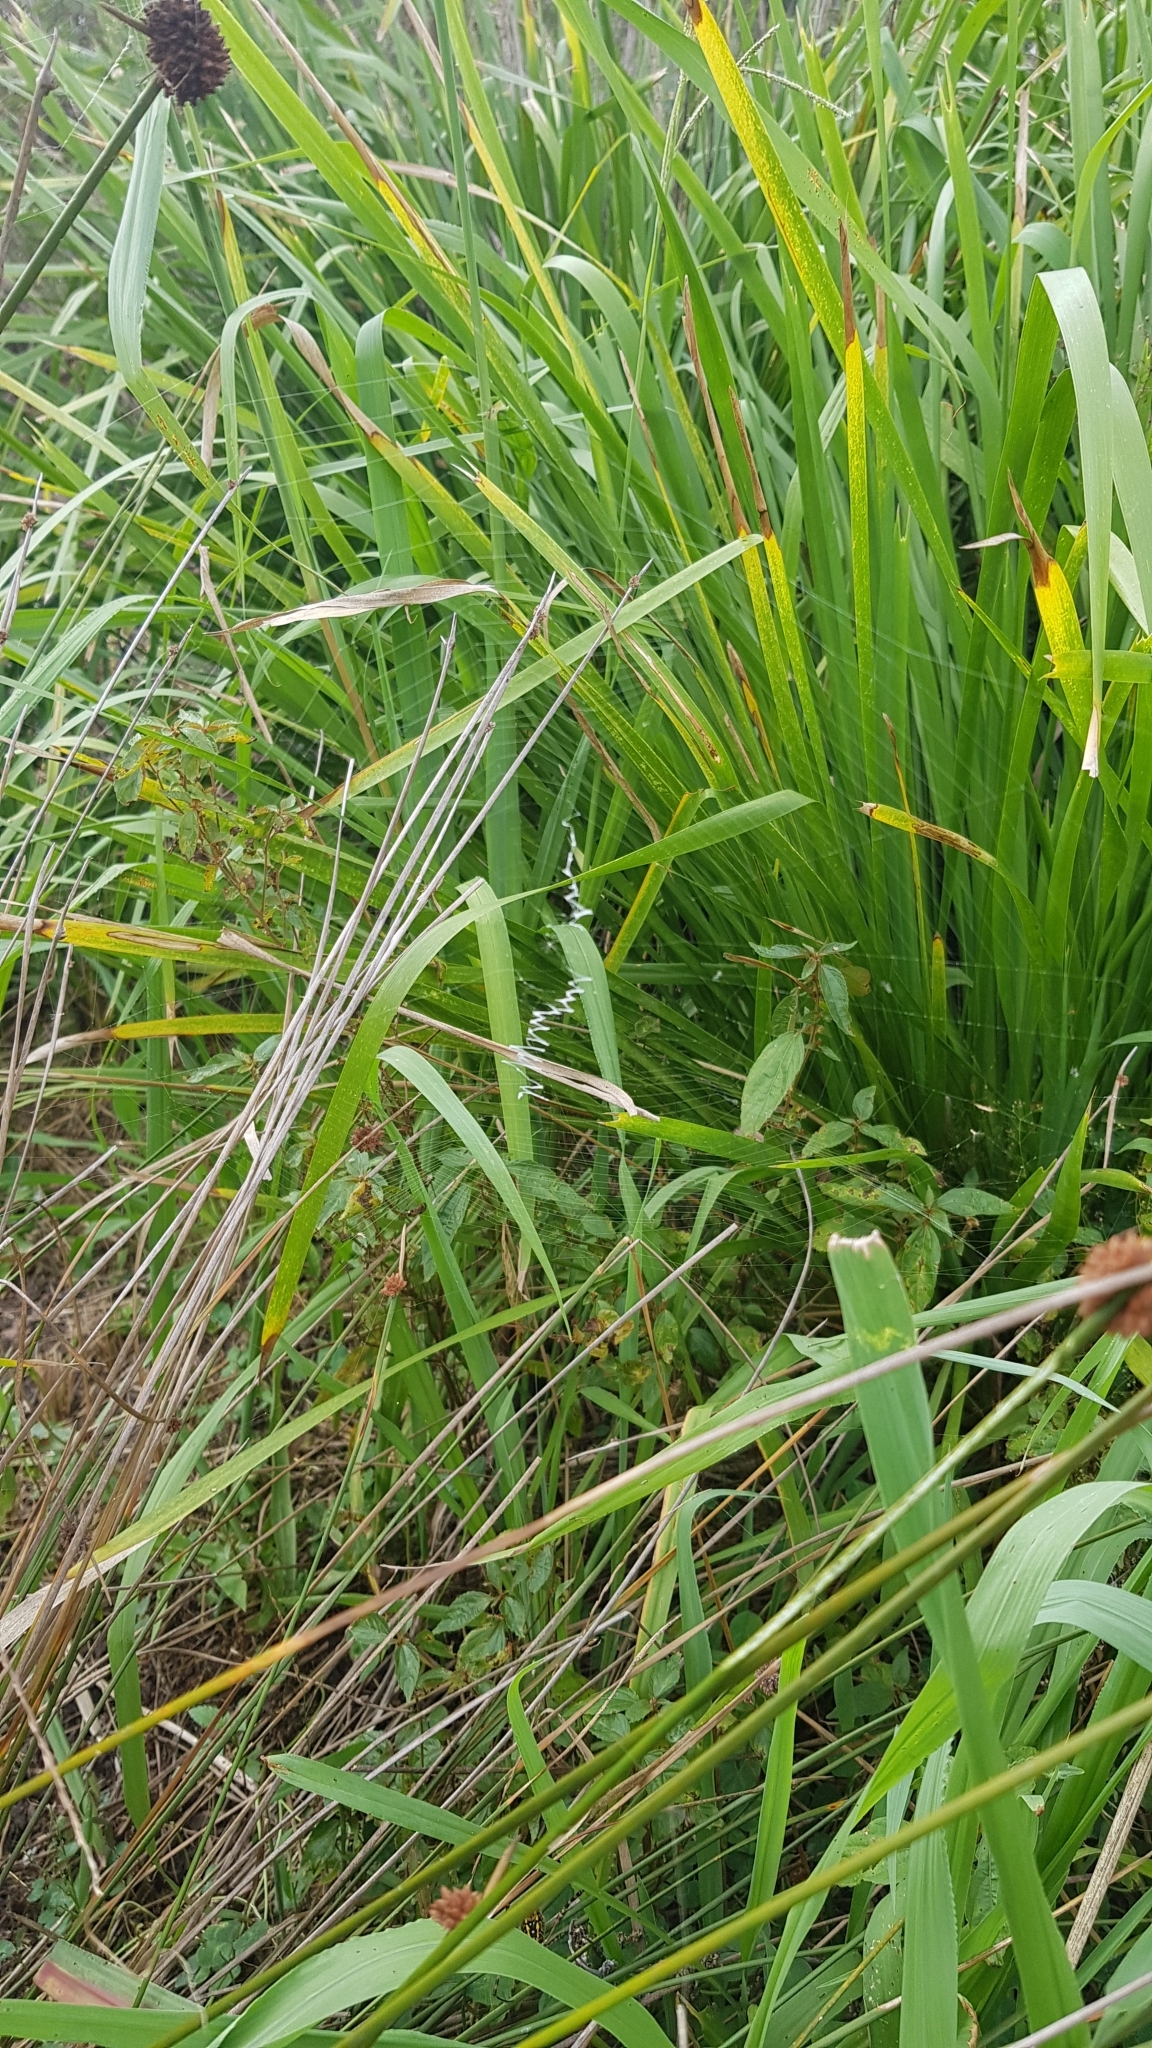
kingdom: Animalia
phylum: Arthropoda
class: Arachnida
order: Araneae
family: Araneidae
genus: Argiope
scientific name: Argiope trifasciata
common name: Banded garden spider
